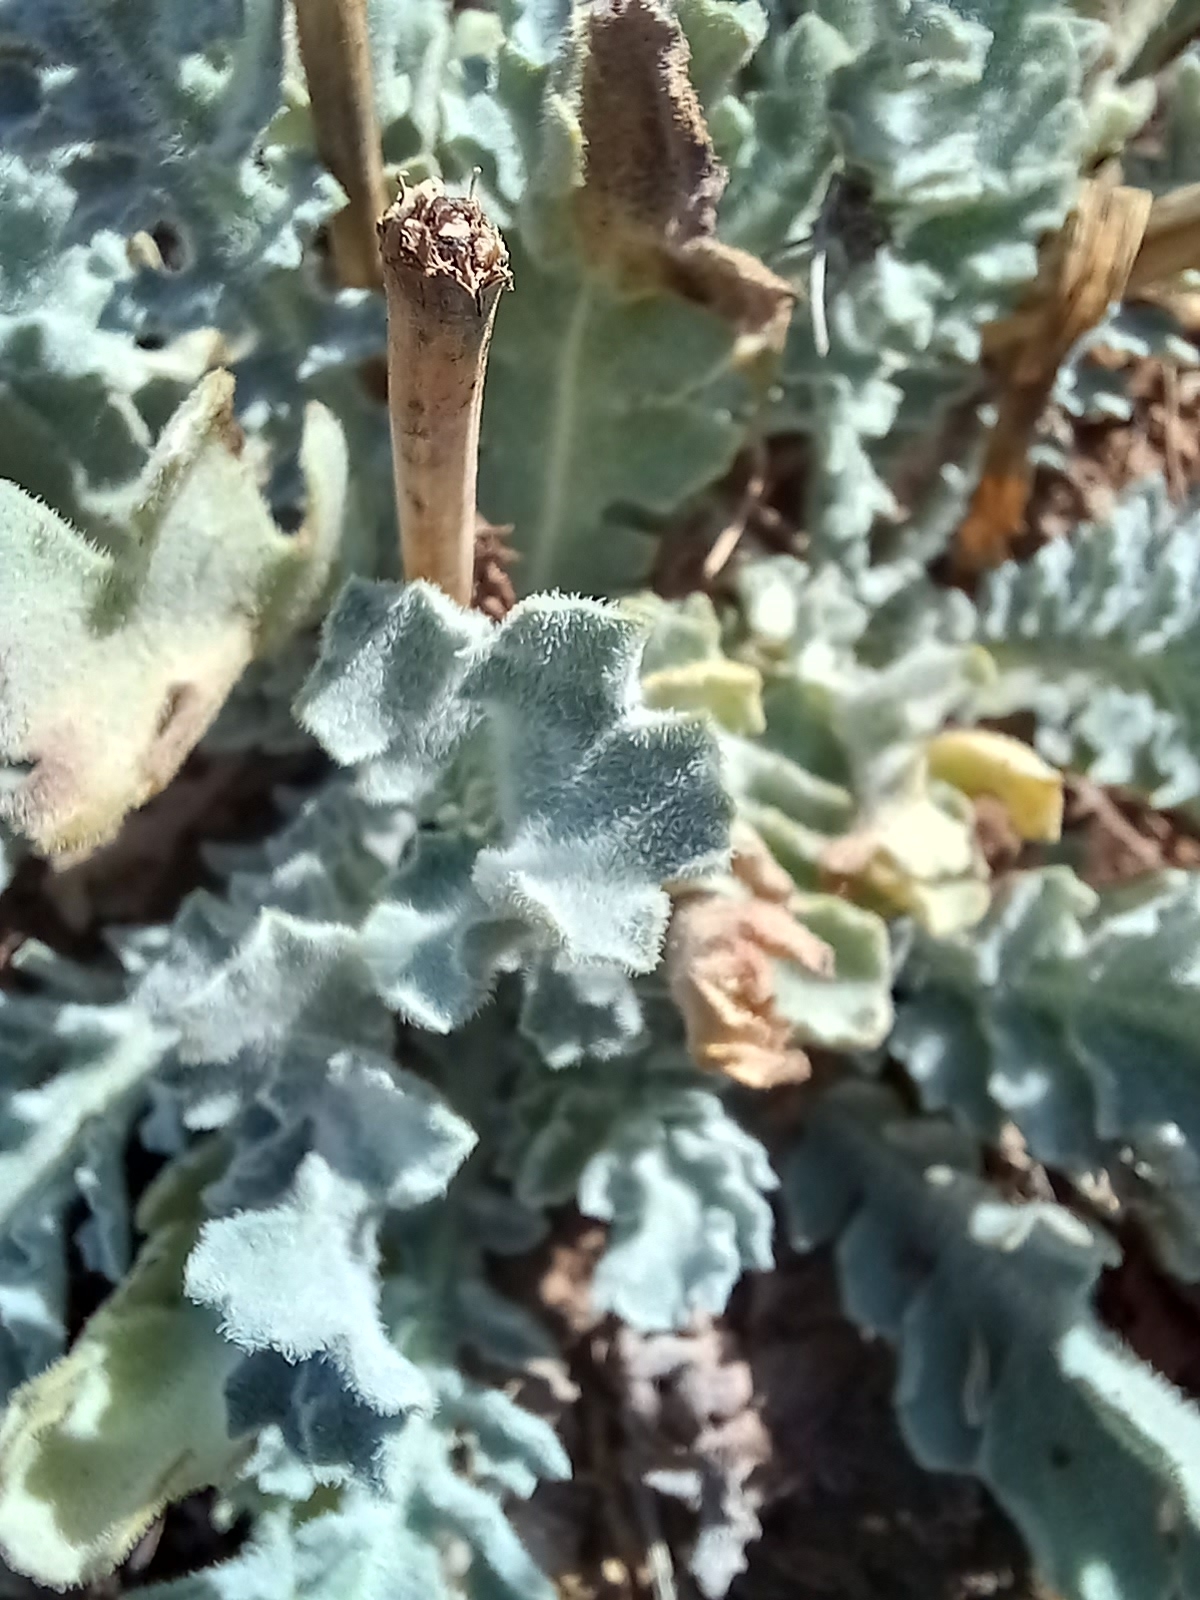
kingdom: Plantae
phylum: Tracheophyta
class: Magnoliopsida
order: Ranunculales
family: Papaveraceae
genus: Glaucium
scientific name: Glaucium flavum
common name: Yellow horned-poppy
